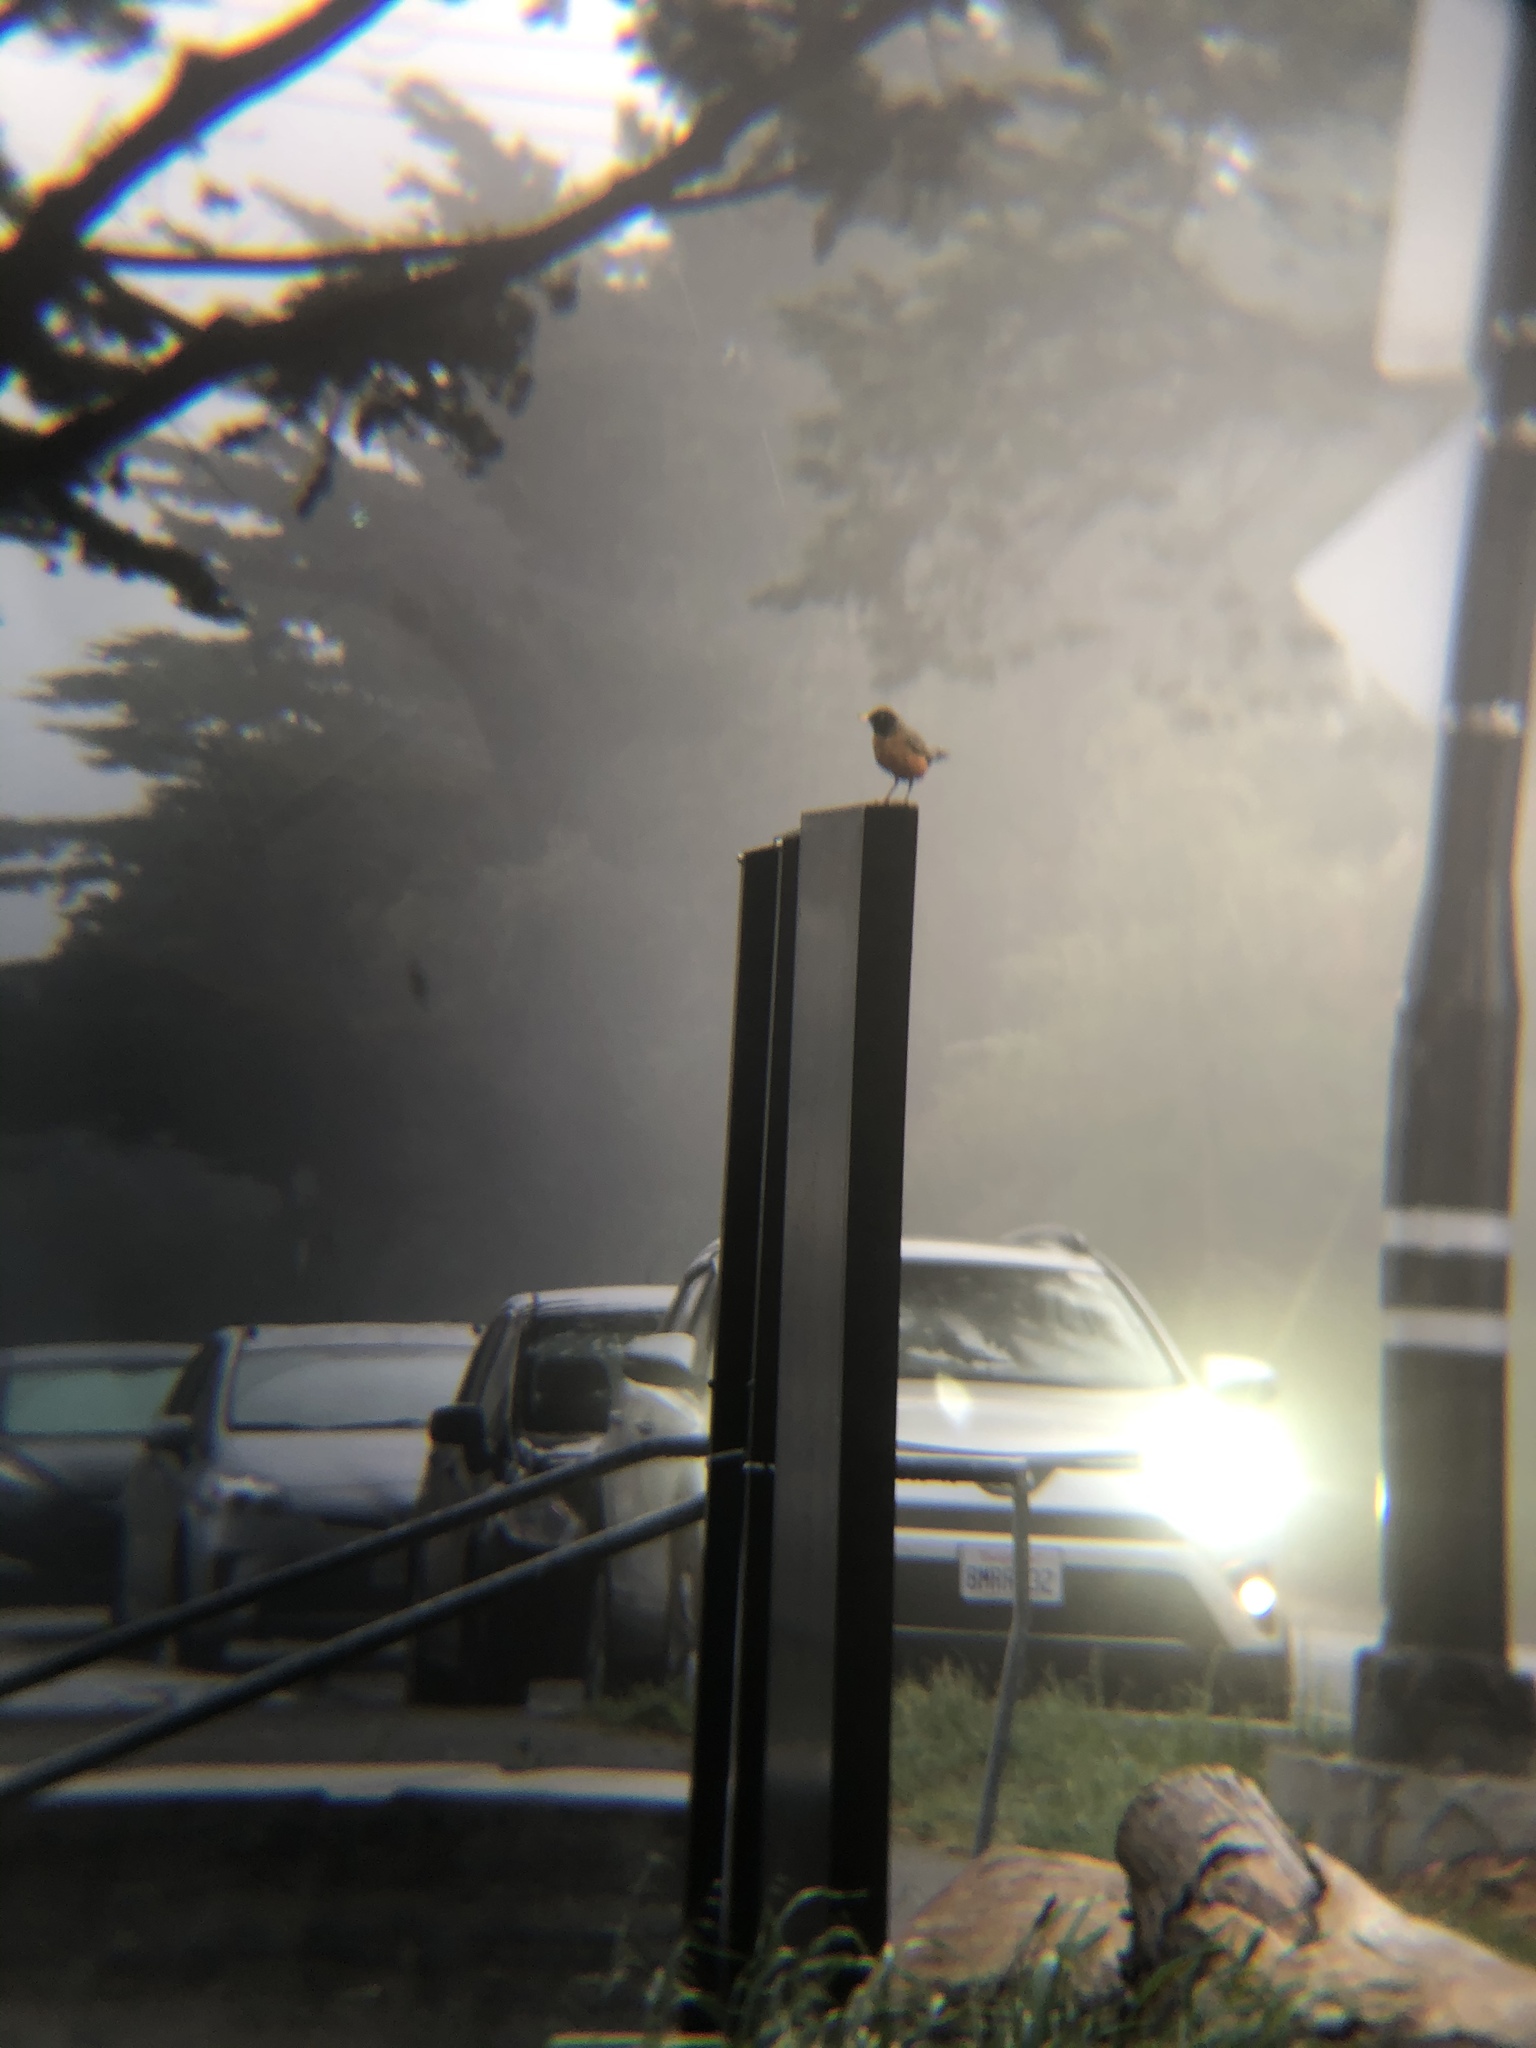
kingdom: Animalia
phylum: Chordata
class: Aves
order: Passeriformes
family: Turdidae
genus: Turdus
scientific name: Turdus migratorius
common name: American robin
